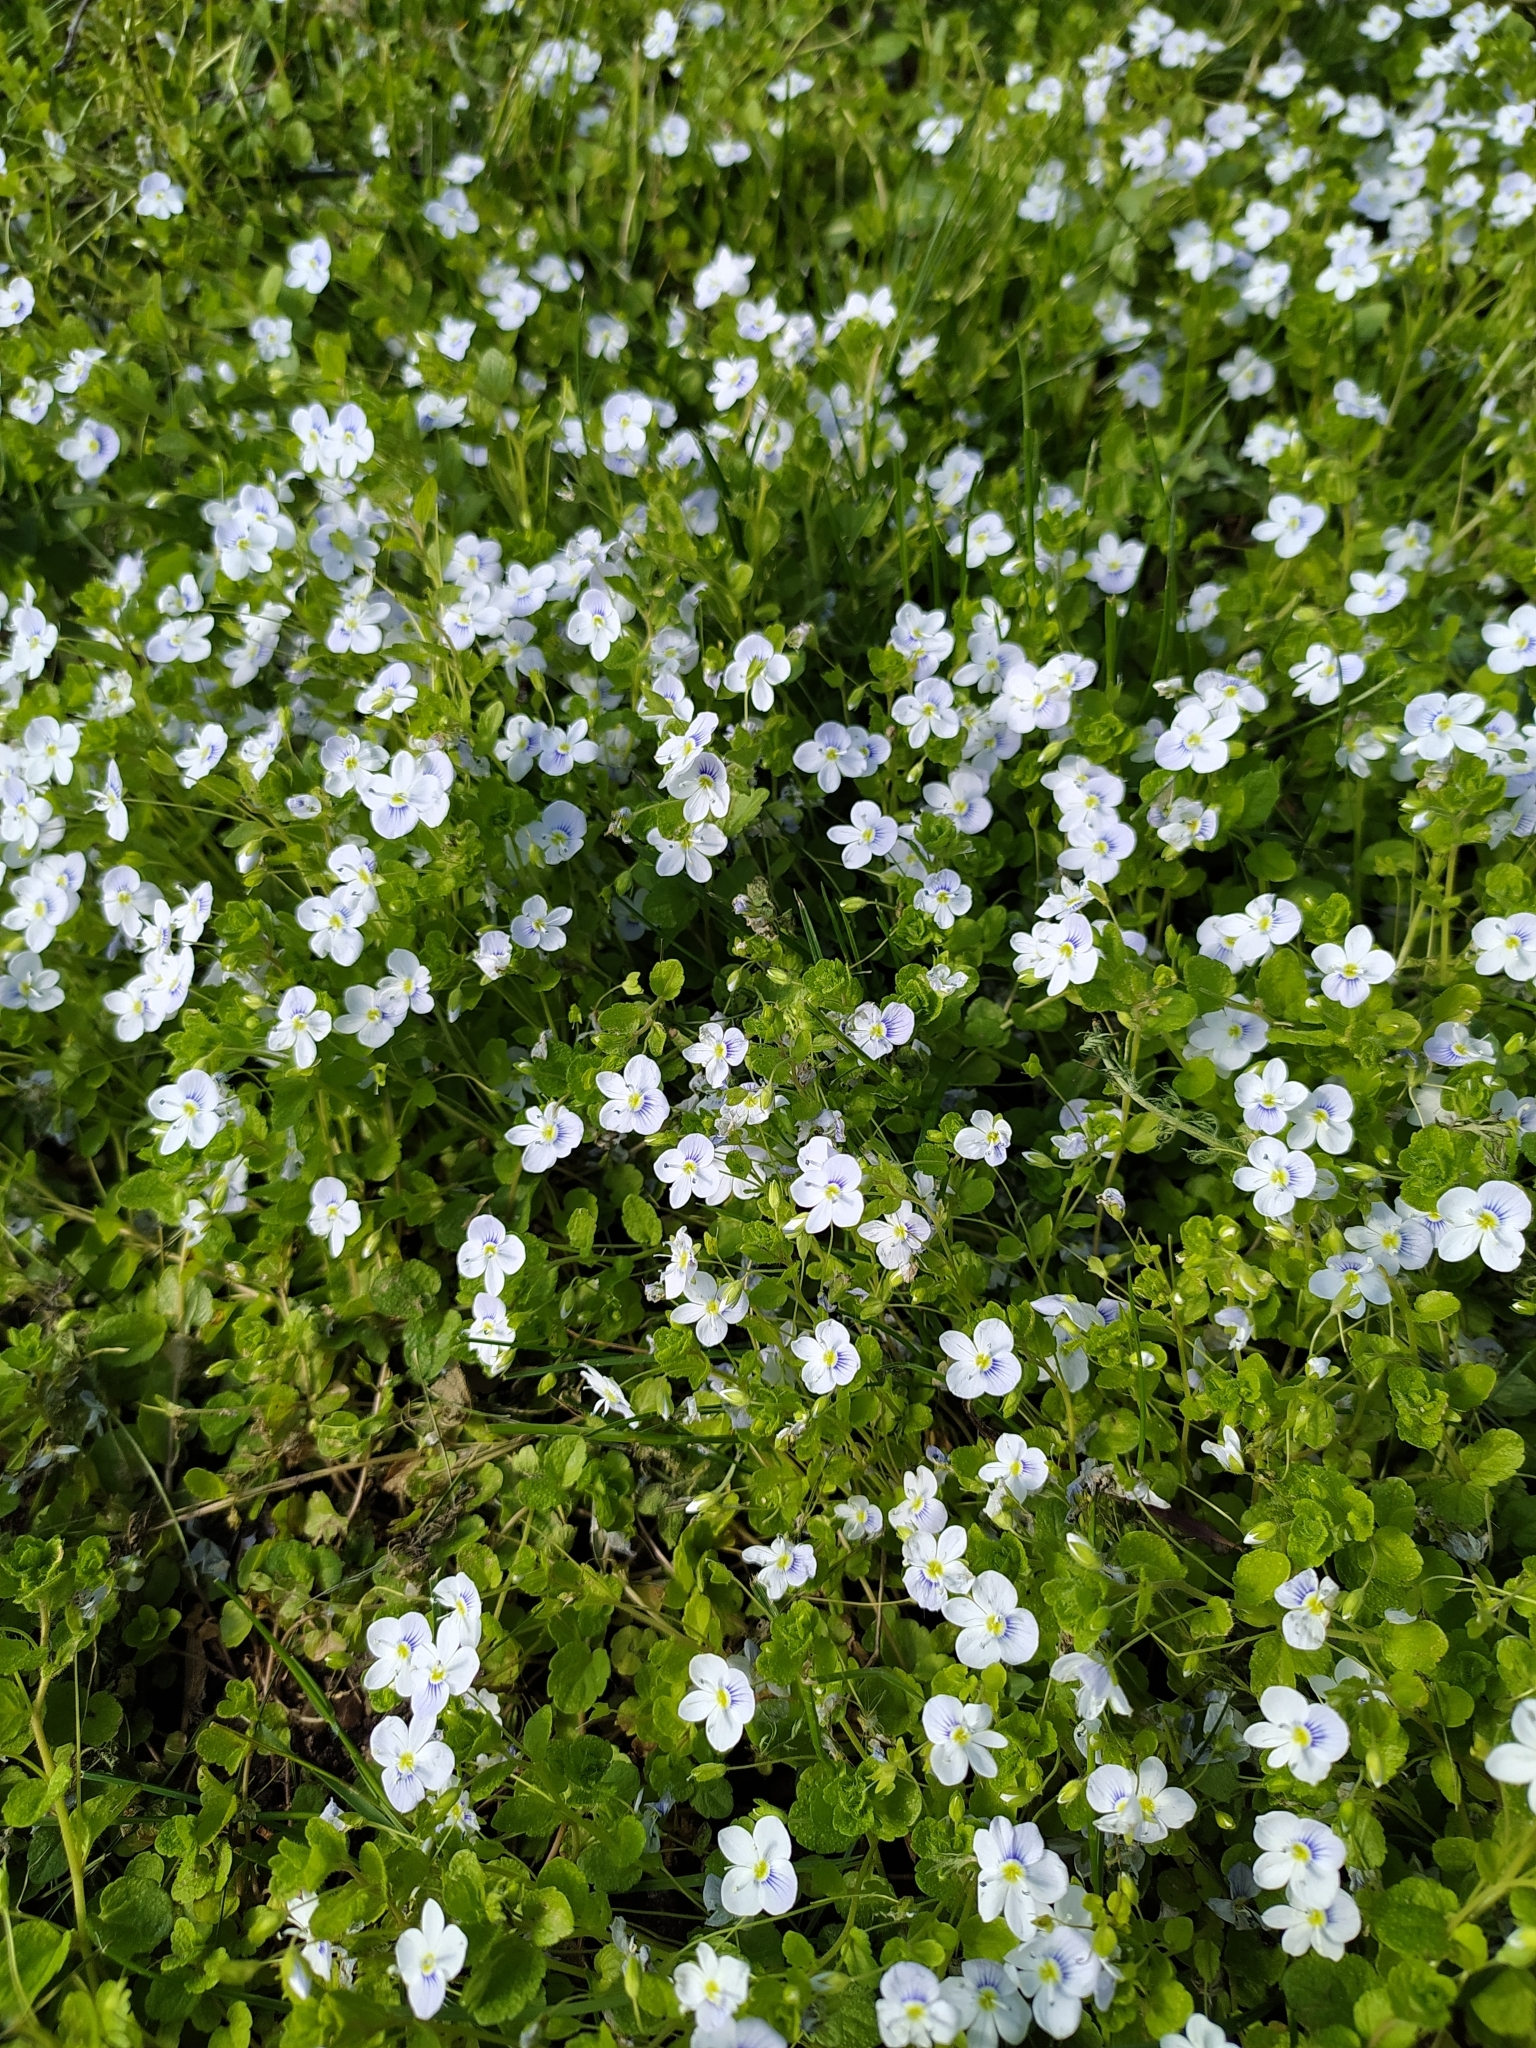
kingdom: Plantae
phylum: Tracheophyta
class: Magnoliopsida
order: Lamiales
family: Plantaginaceae
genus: Veronica
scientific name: Veronica filiformis
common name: Slender speedwell
